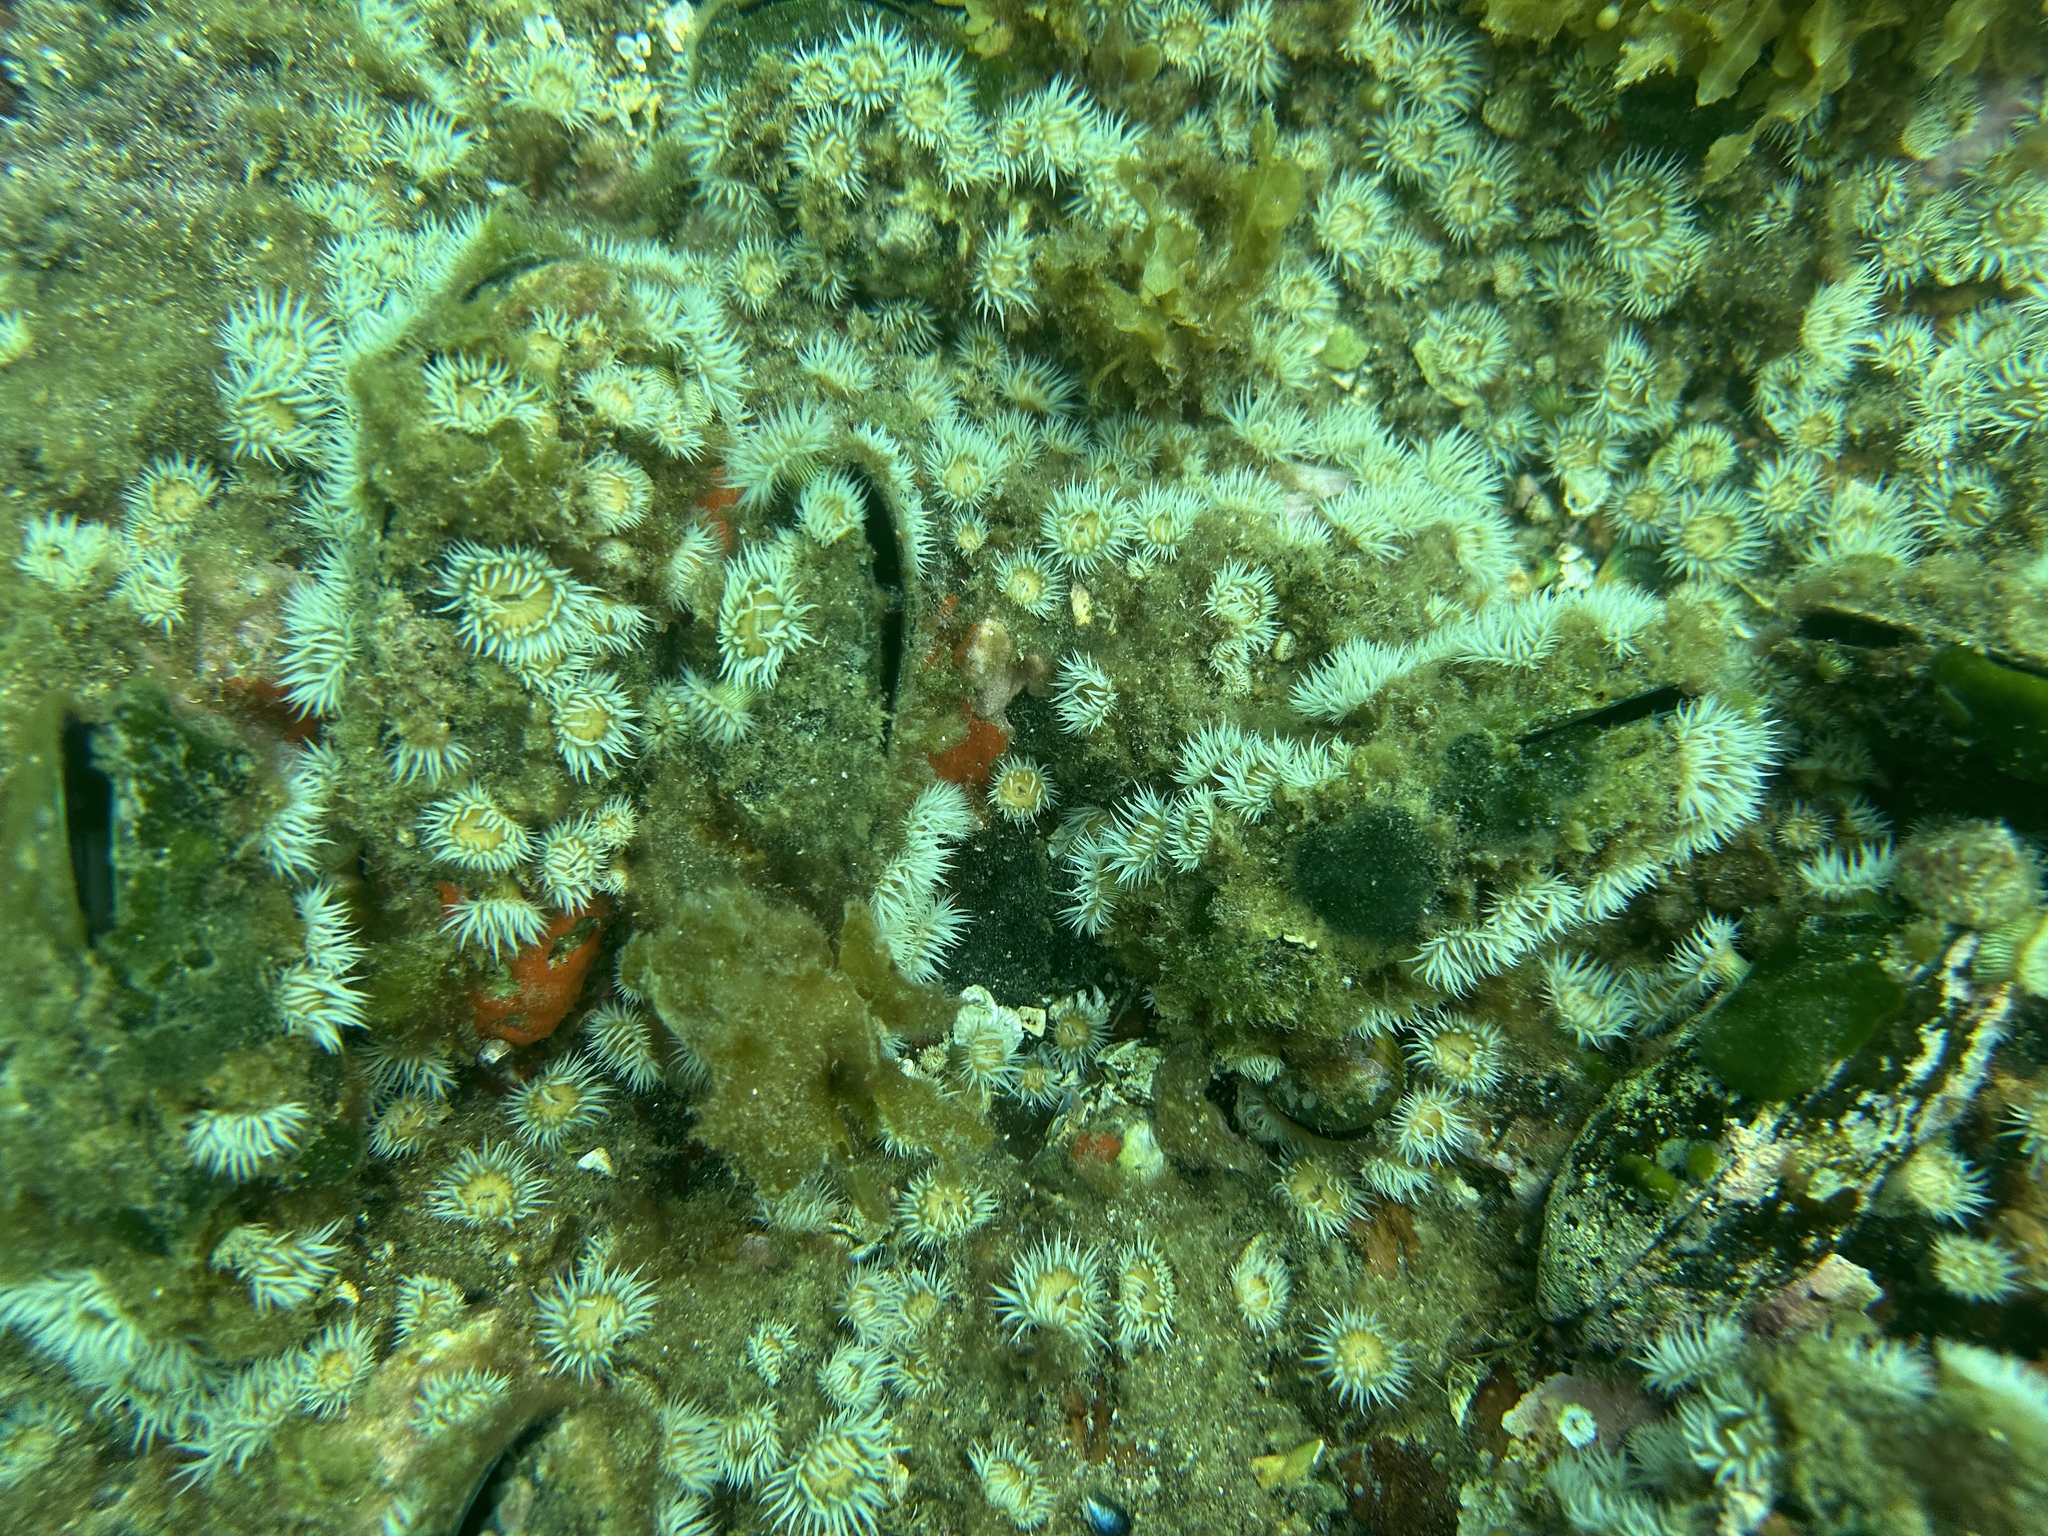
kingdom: Animalia
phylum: Mollusca
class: Bivalvia
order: Mytilida
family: Mytilidae
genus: Perna
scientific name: Perna canaliculus
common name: New zealand greenshelltm
